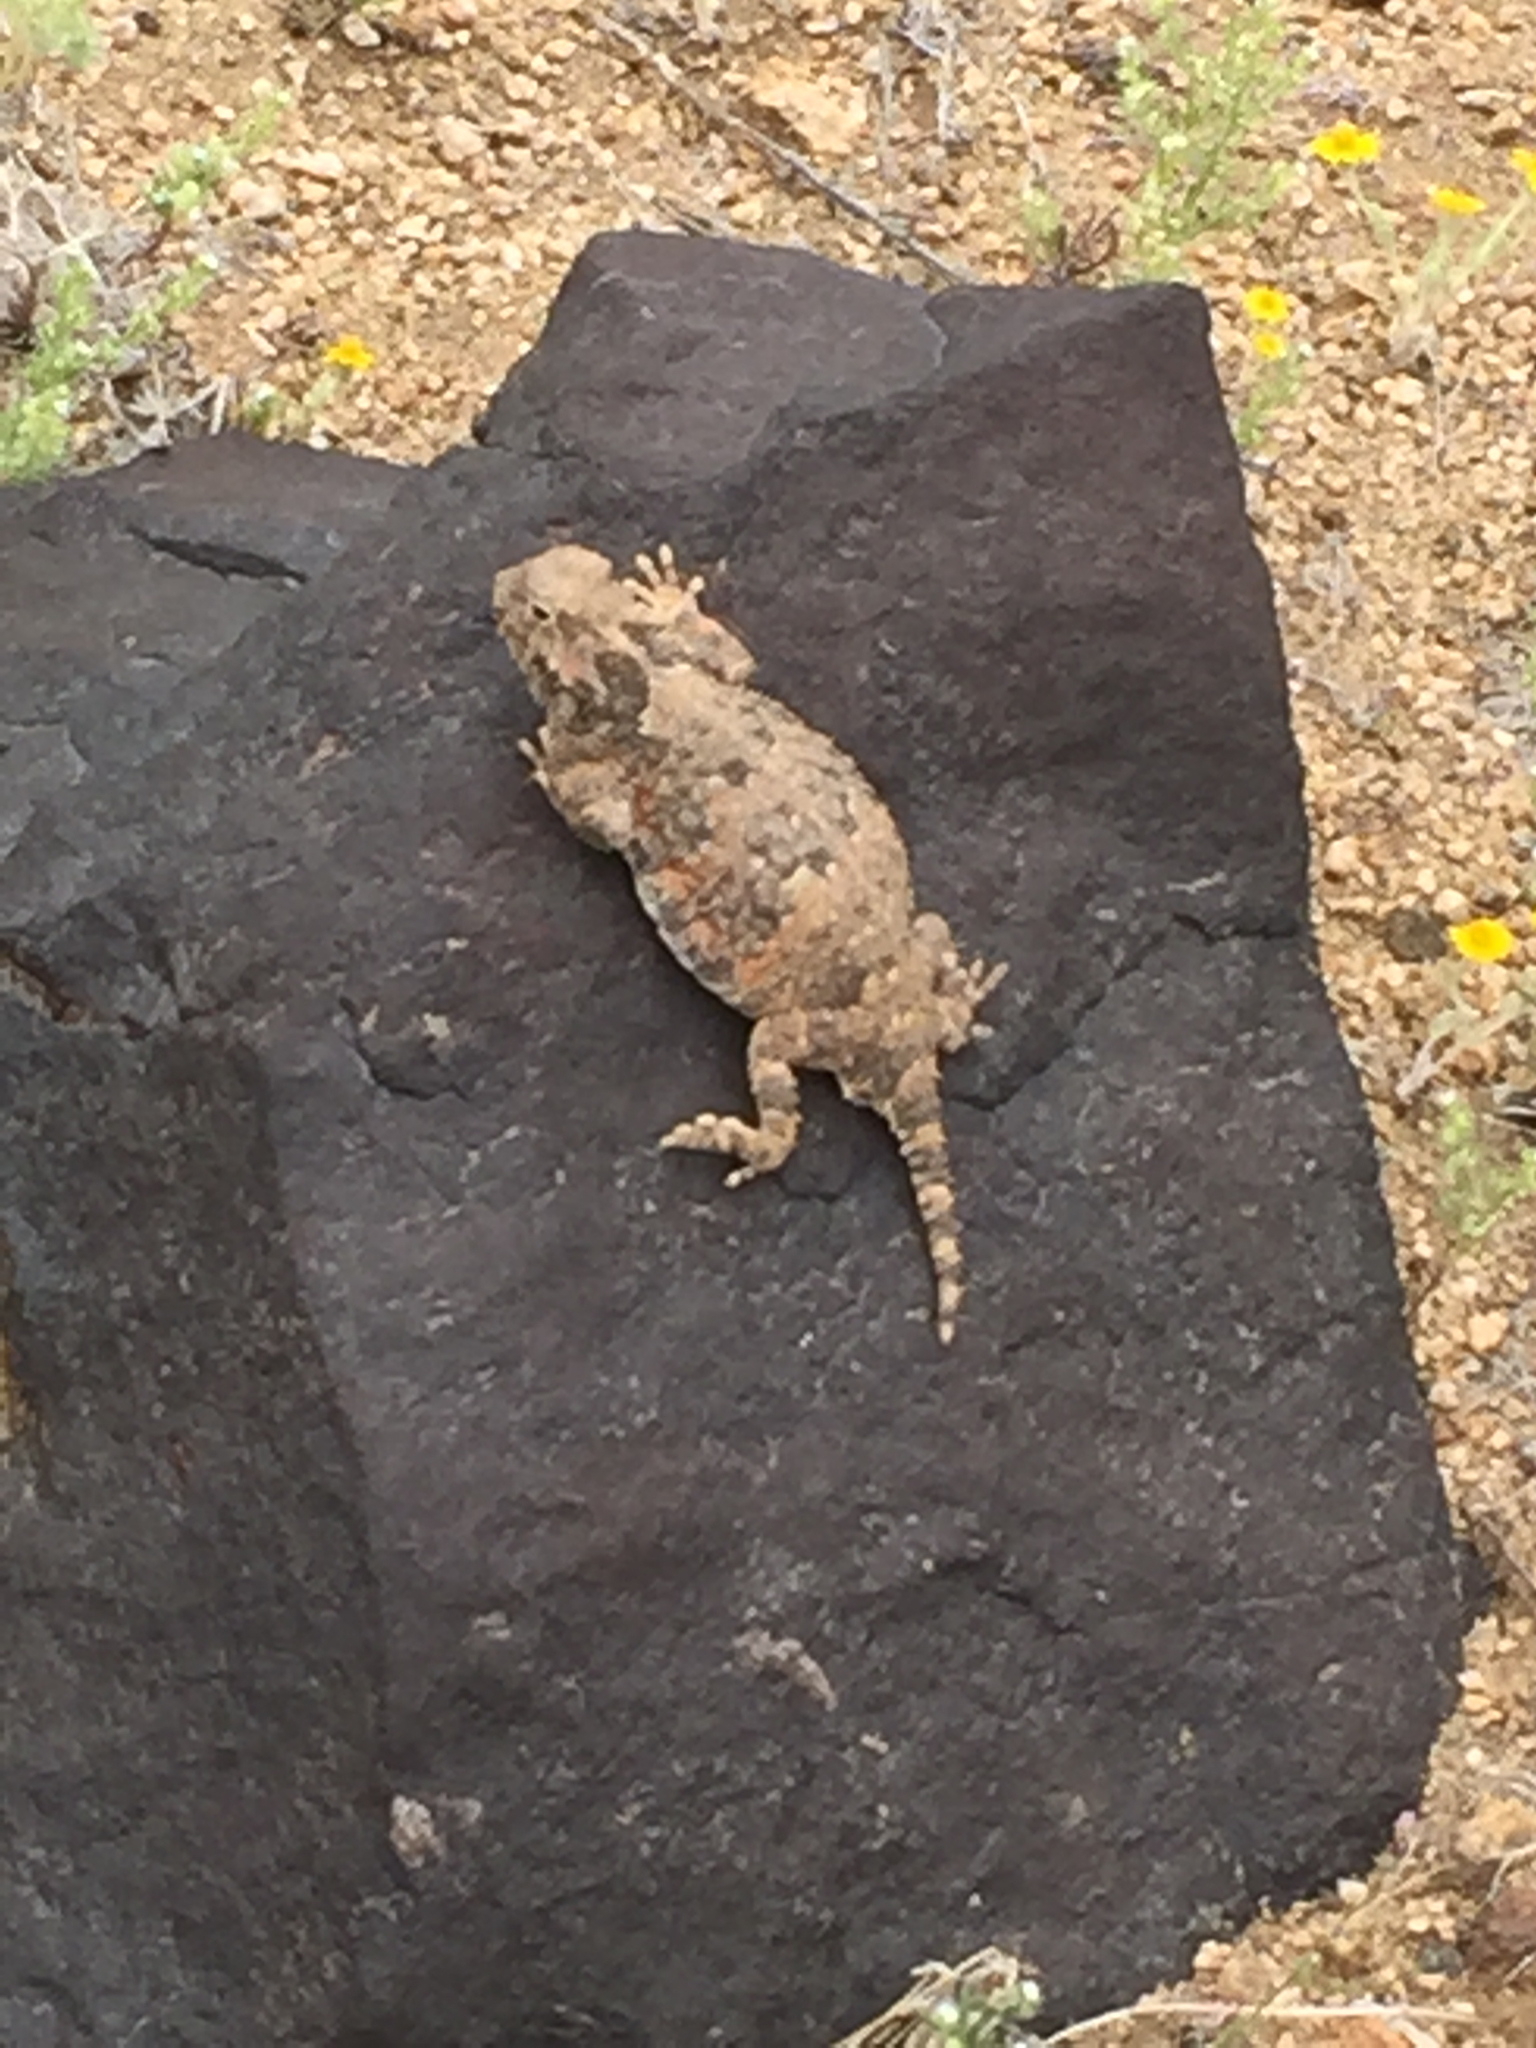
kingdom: Animalia
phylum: Chordata
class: Squamata
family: Phrynosomatidae
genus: Phrynosoma
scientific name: Phrynosoma platyrhinos
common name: Desert horned lizard
